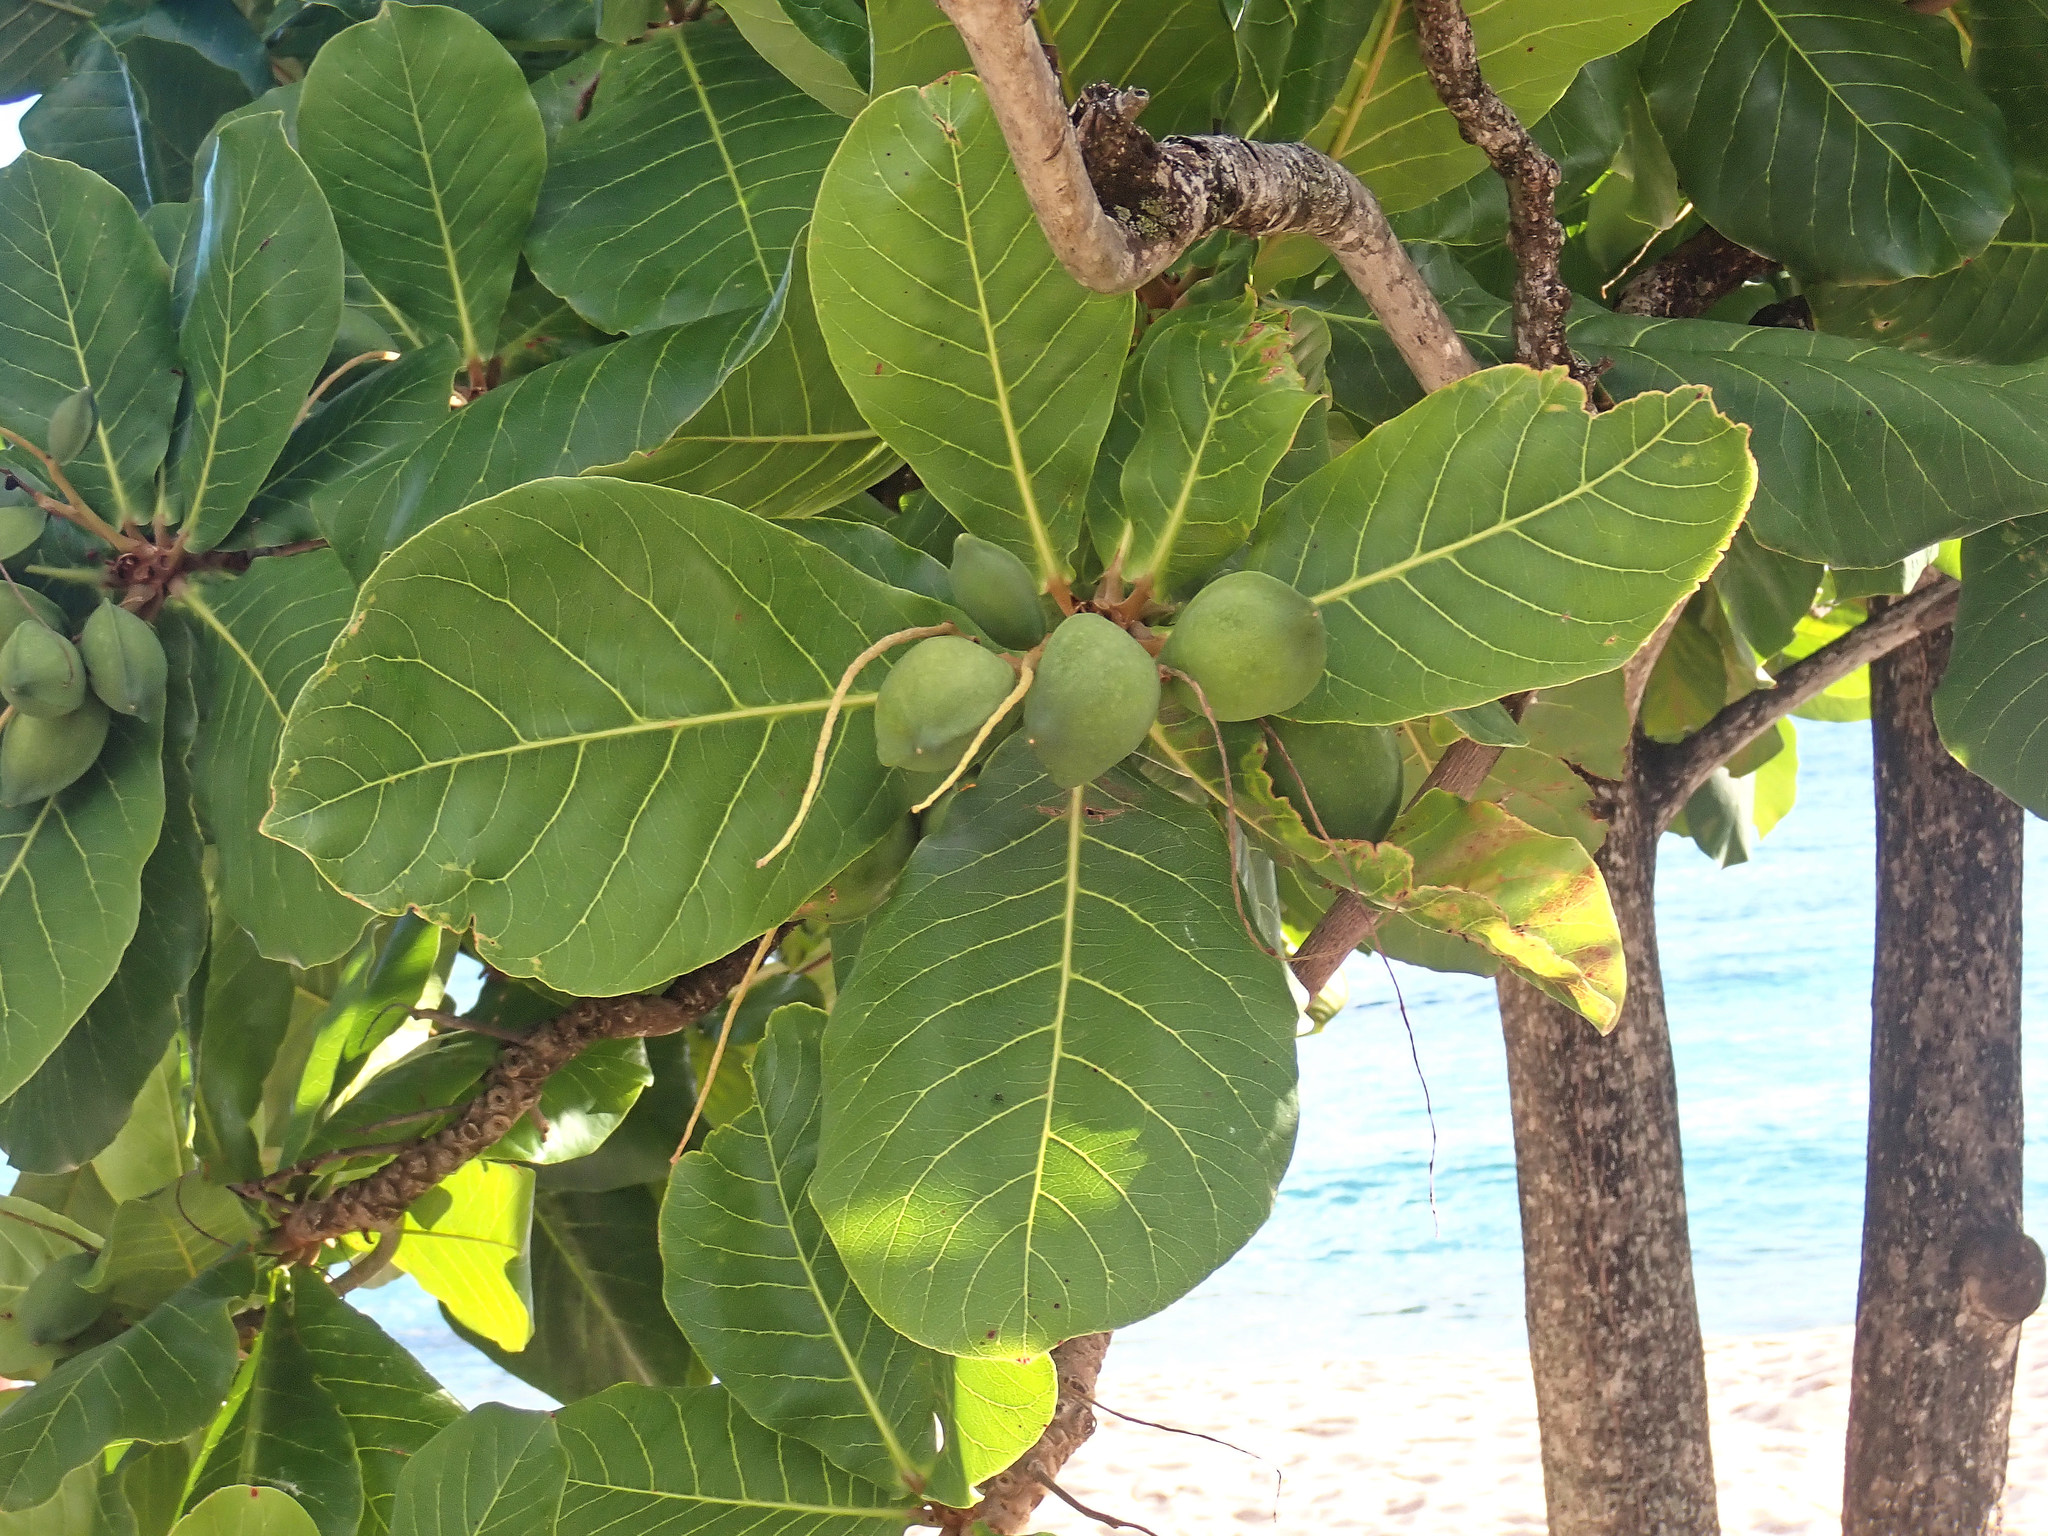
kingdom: Plantae
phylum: Tracheophyta
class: Magnoliopsida
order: Myrtales
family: Combretaceae
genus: Terminalia
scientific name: Terminalia catappa
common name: Tropical almond
